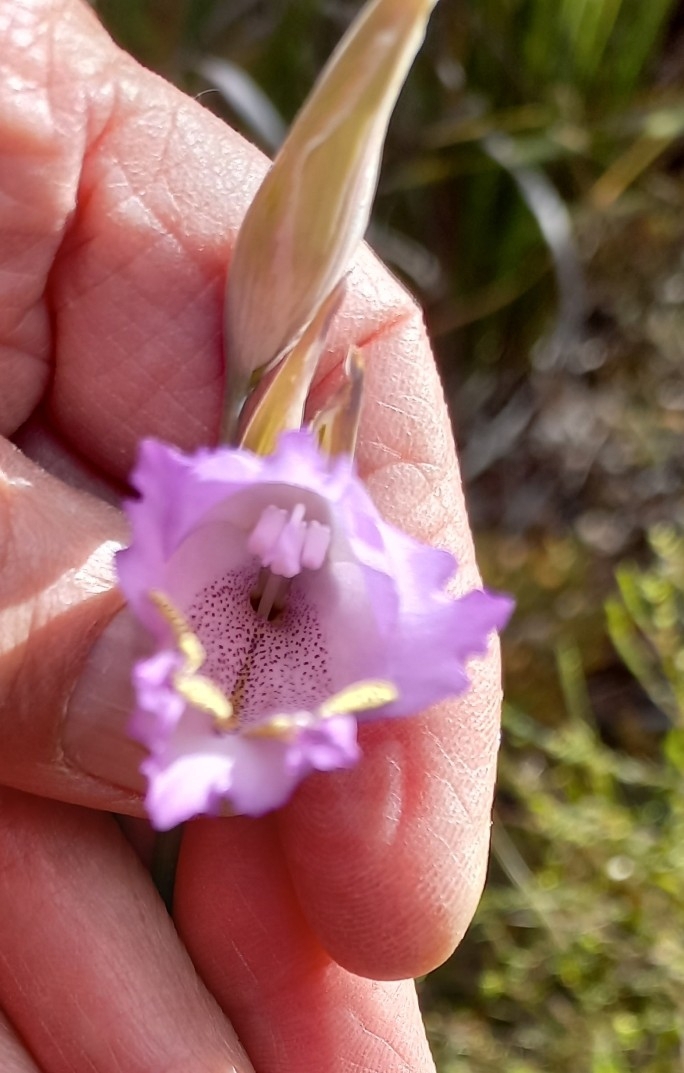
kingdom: Plantae
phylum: Tracheophyta
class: Liliopsida
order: Asparagales
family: Iridaceae
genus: Gladiolus
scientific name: Gladiolus bullatus
